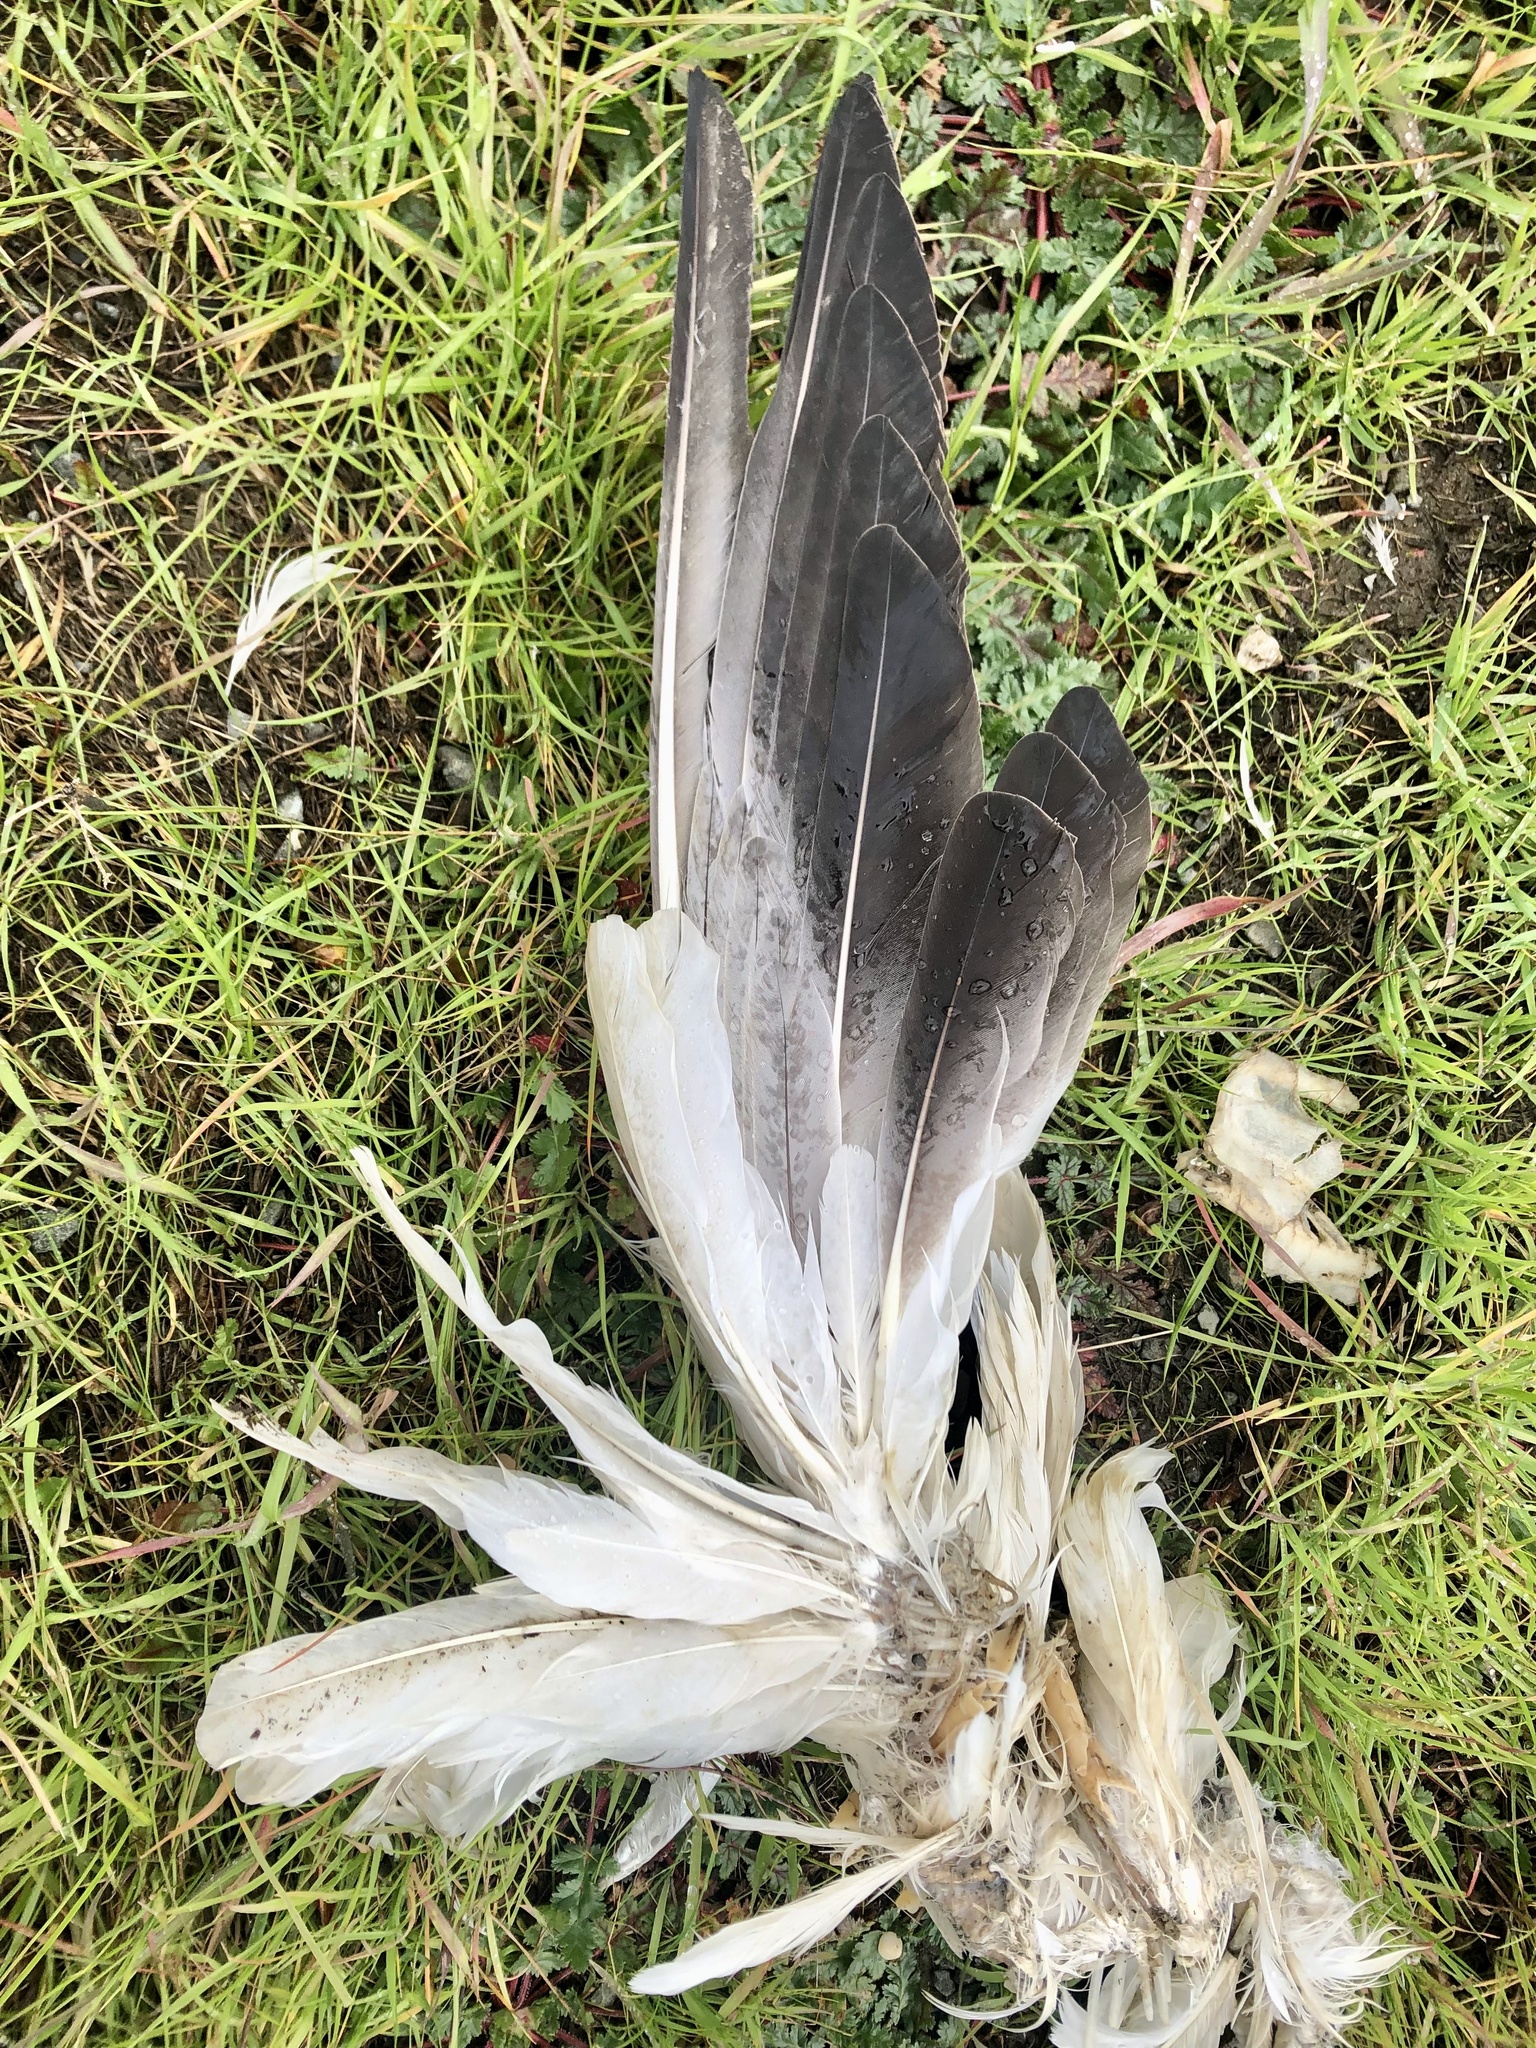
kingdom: Animalia
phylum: Chordata
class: Aves
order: Anseriformes
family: Anatidae
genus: Anser
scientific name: Anser caerulescens
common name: Snow goose
